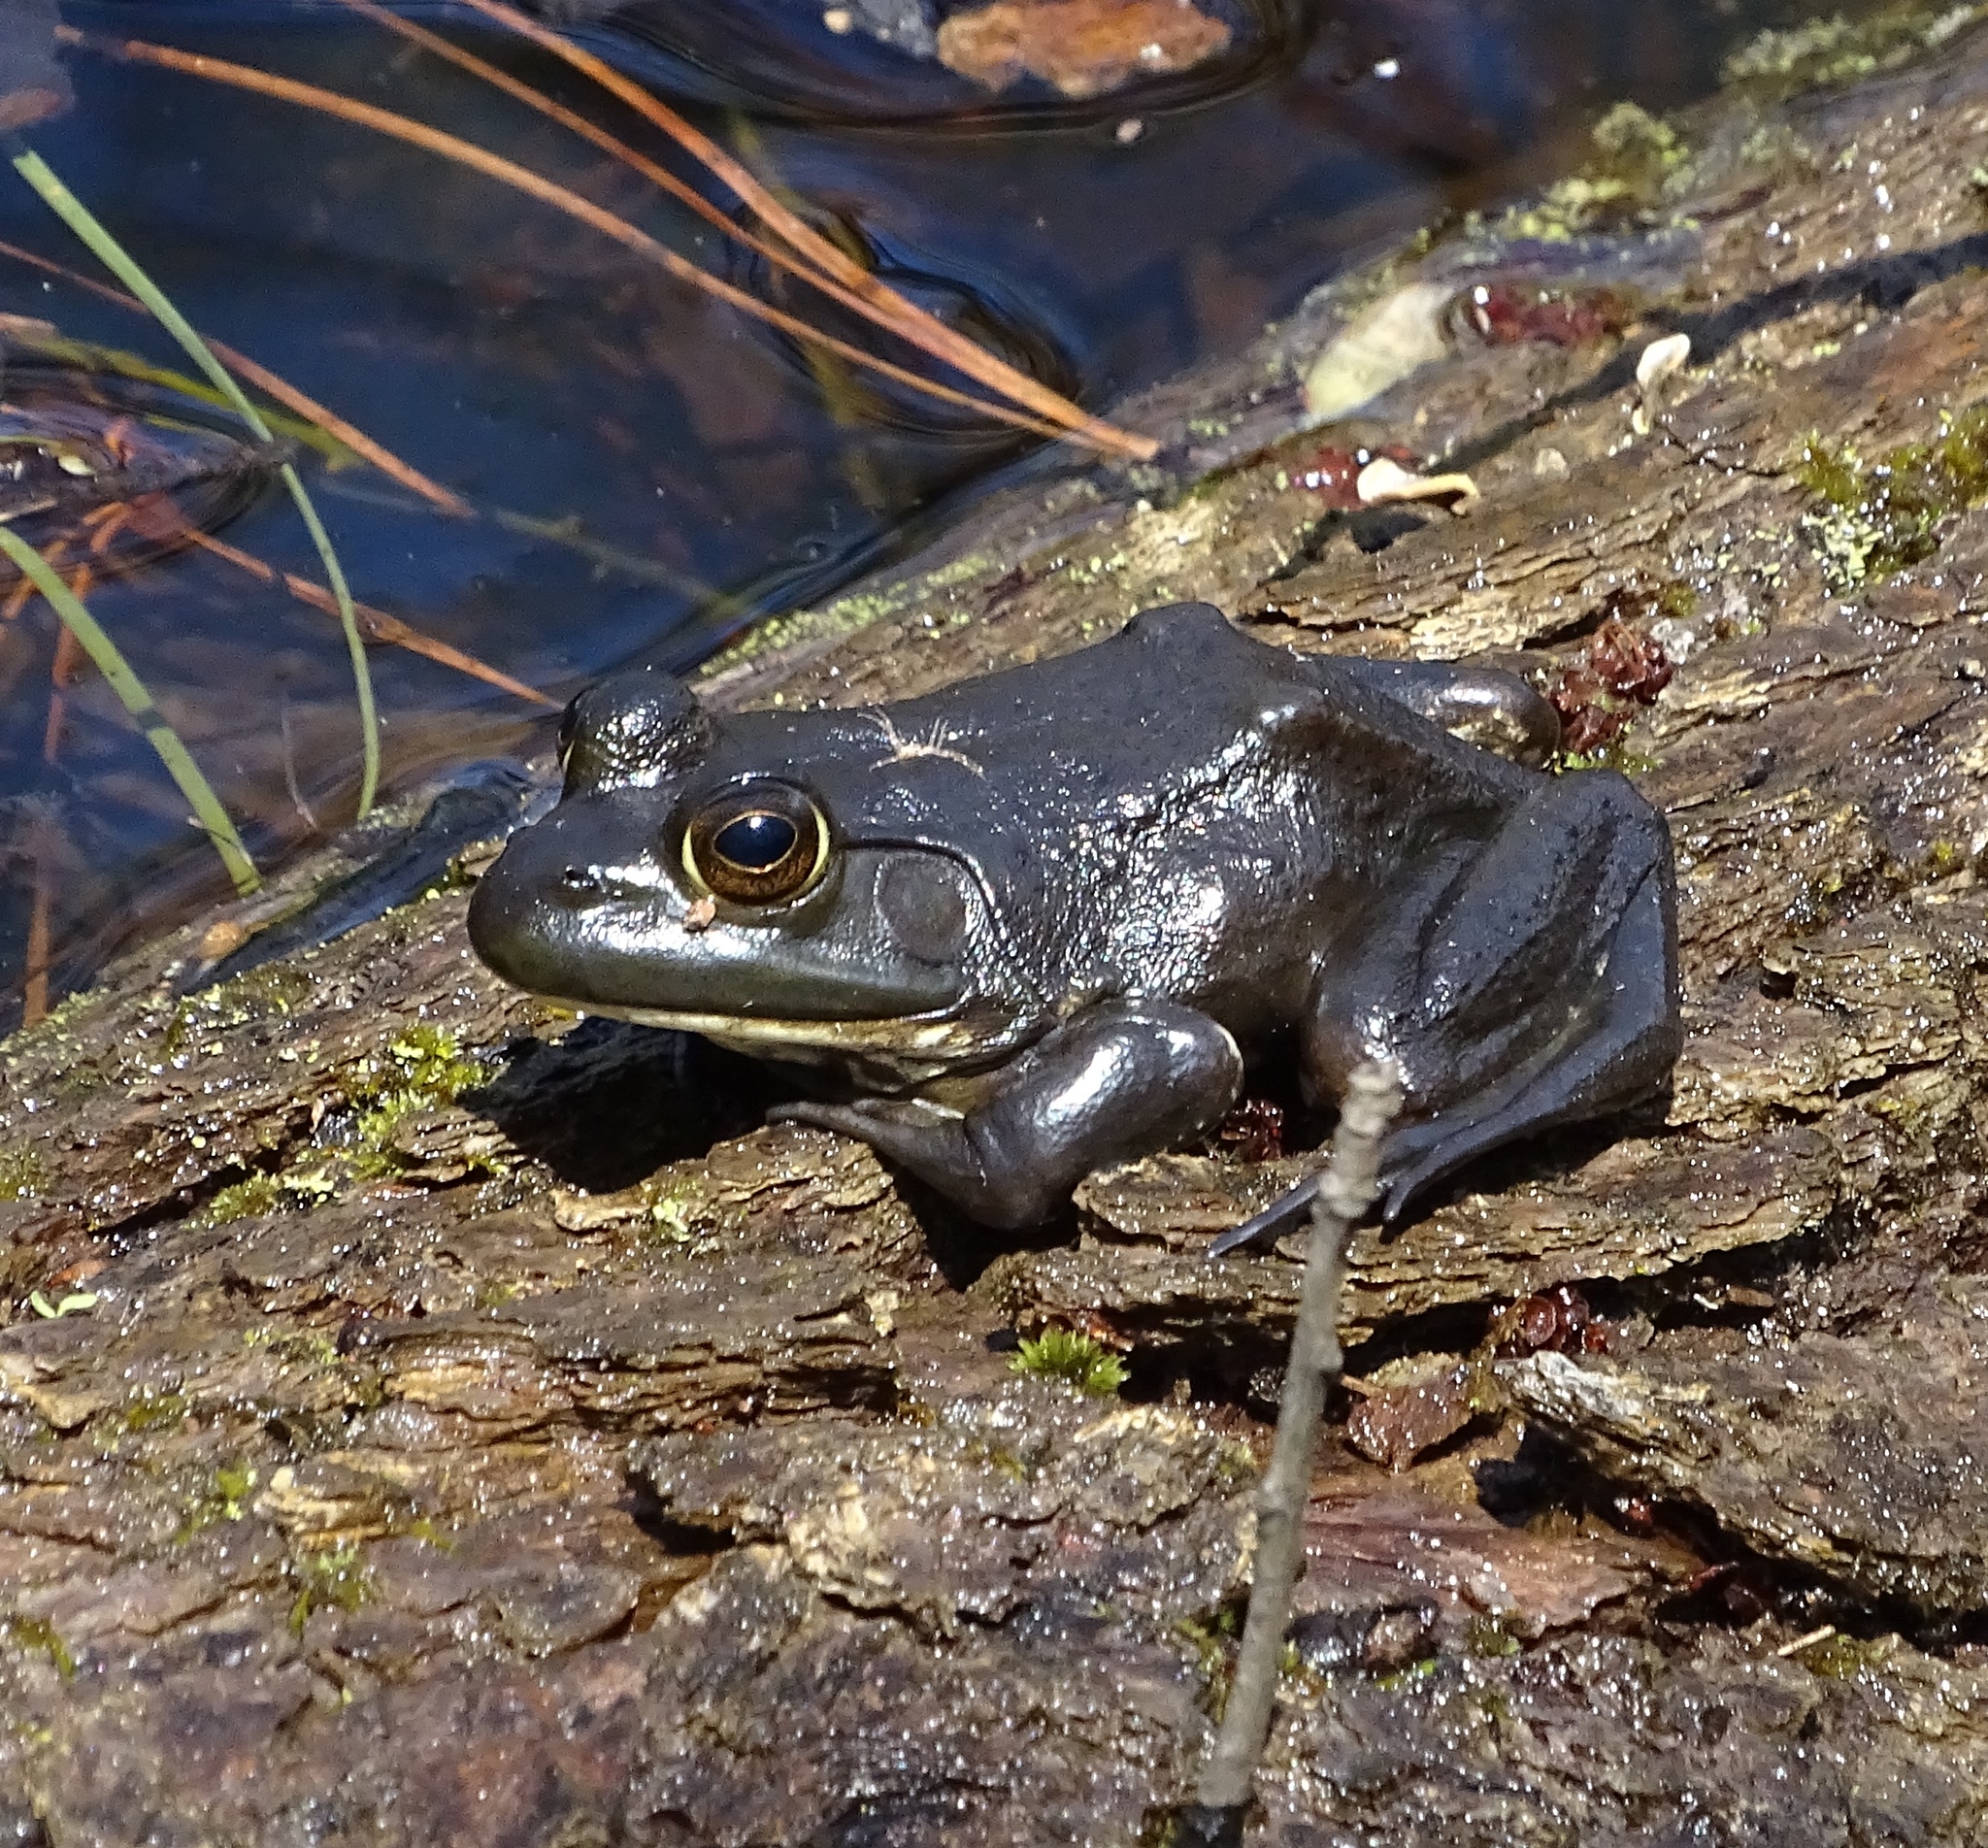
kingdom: Animalia
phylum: Chordata
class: Amphibia
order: Anura
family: Ranidae
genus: Lithobates
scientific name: Lithobates catesbeianus
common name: American bullfrog
